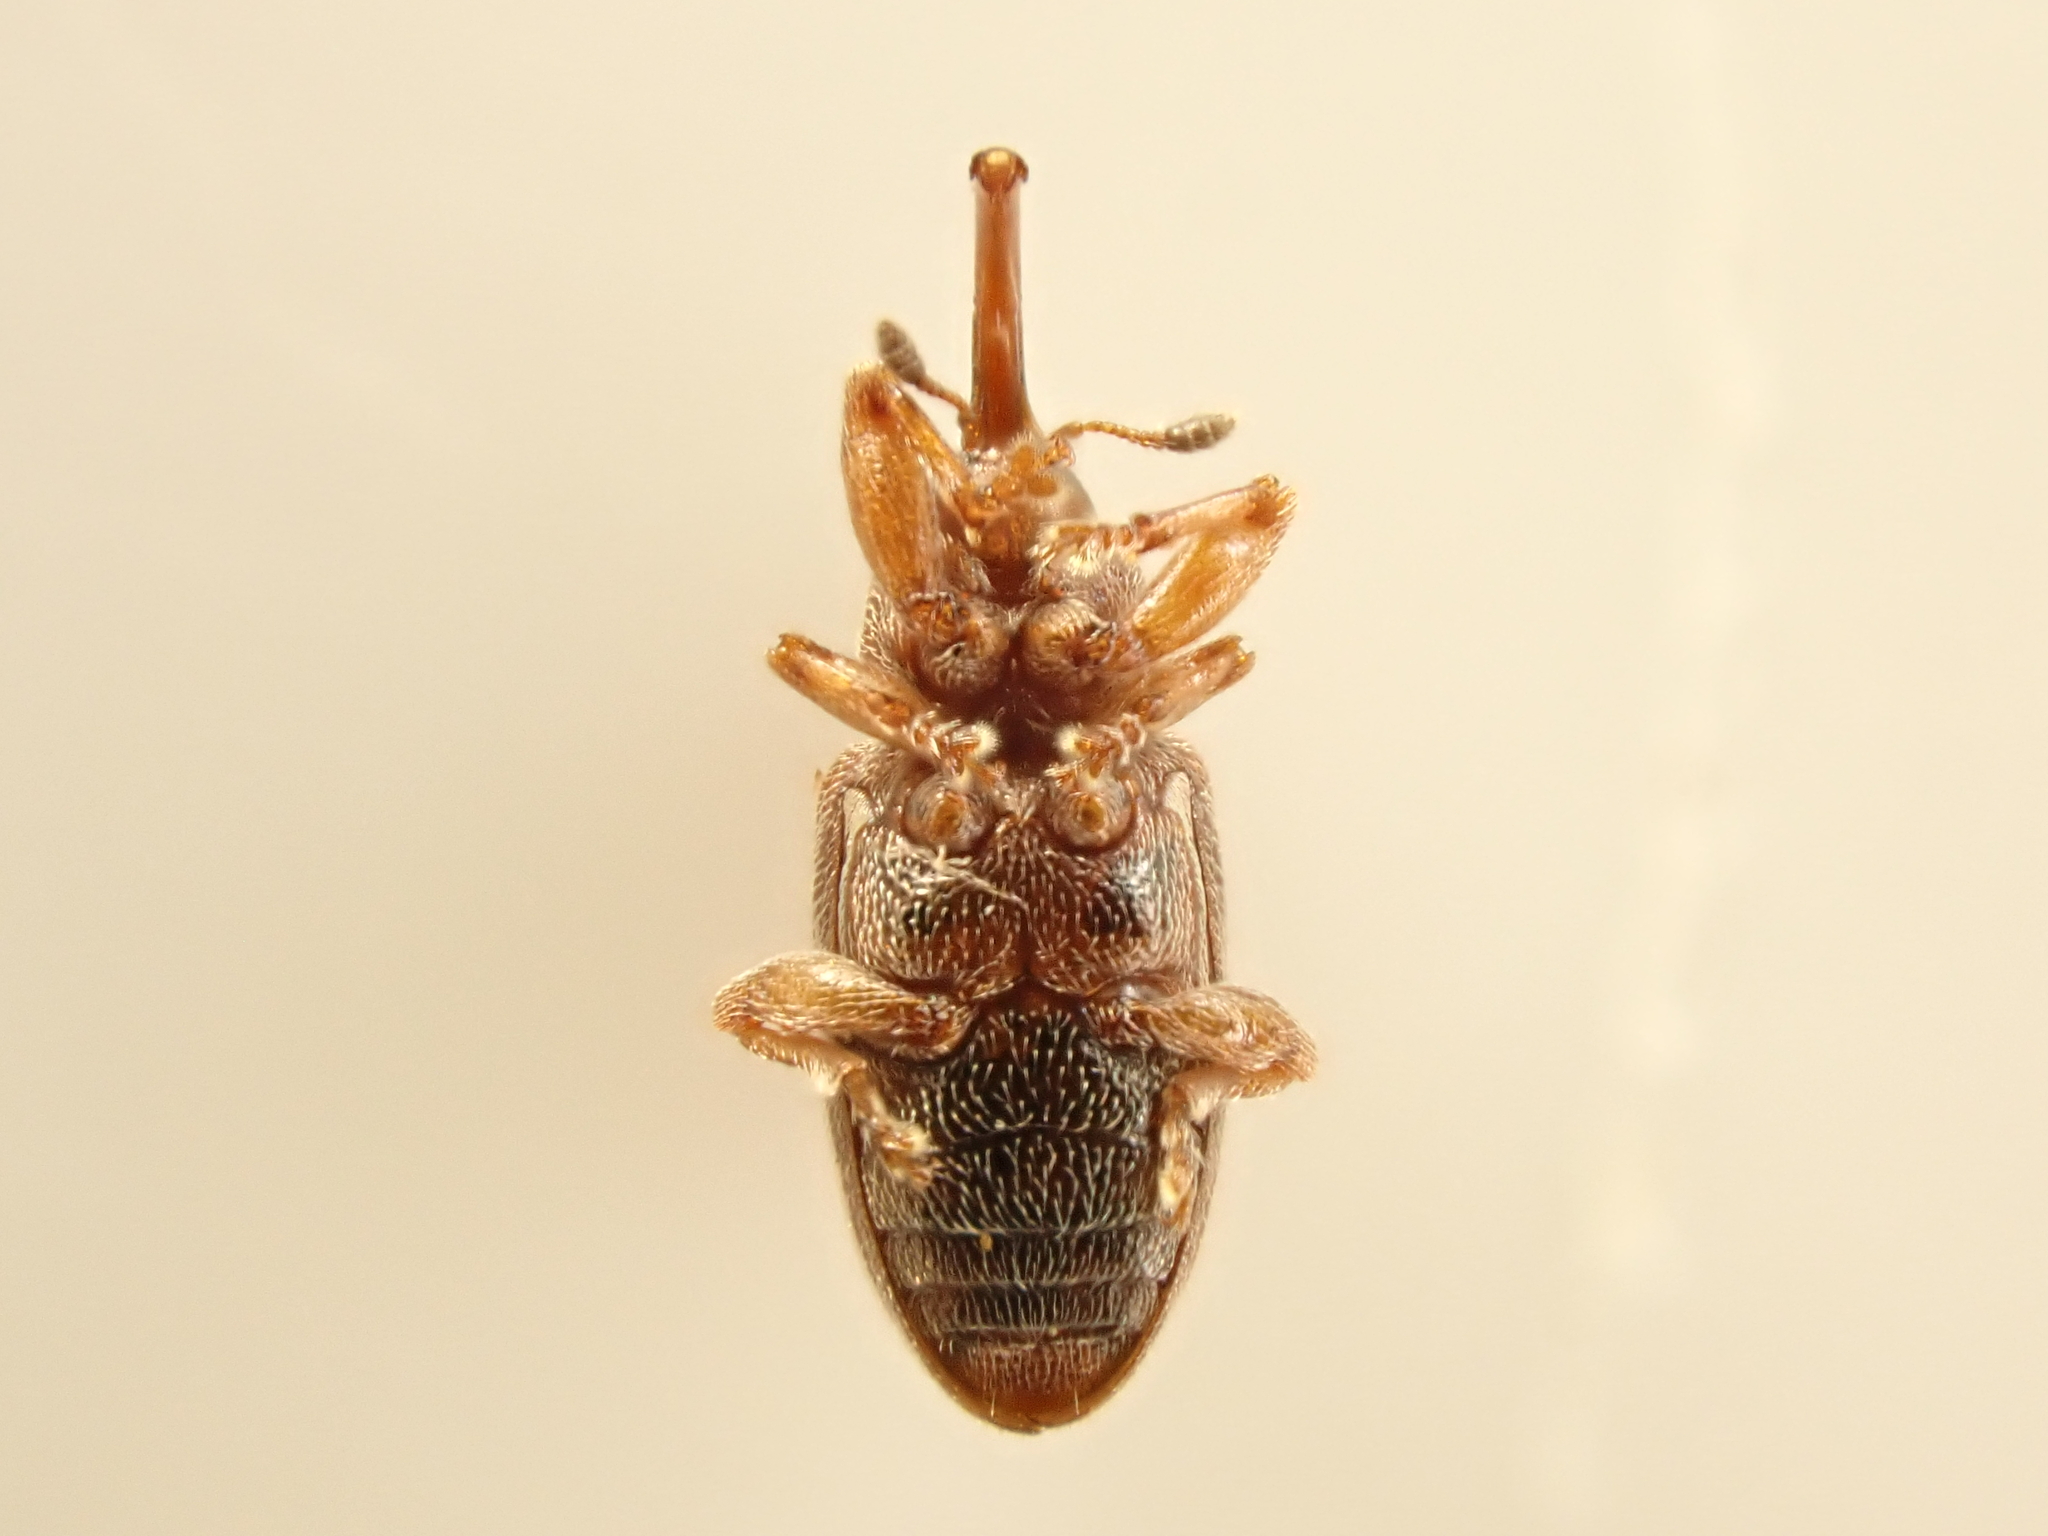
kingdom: Animalia
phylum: Arthropoda
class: Insecta
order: Coleoptera
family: Curculionidae
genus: Aneuma
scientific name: Aneuma fulvipes
